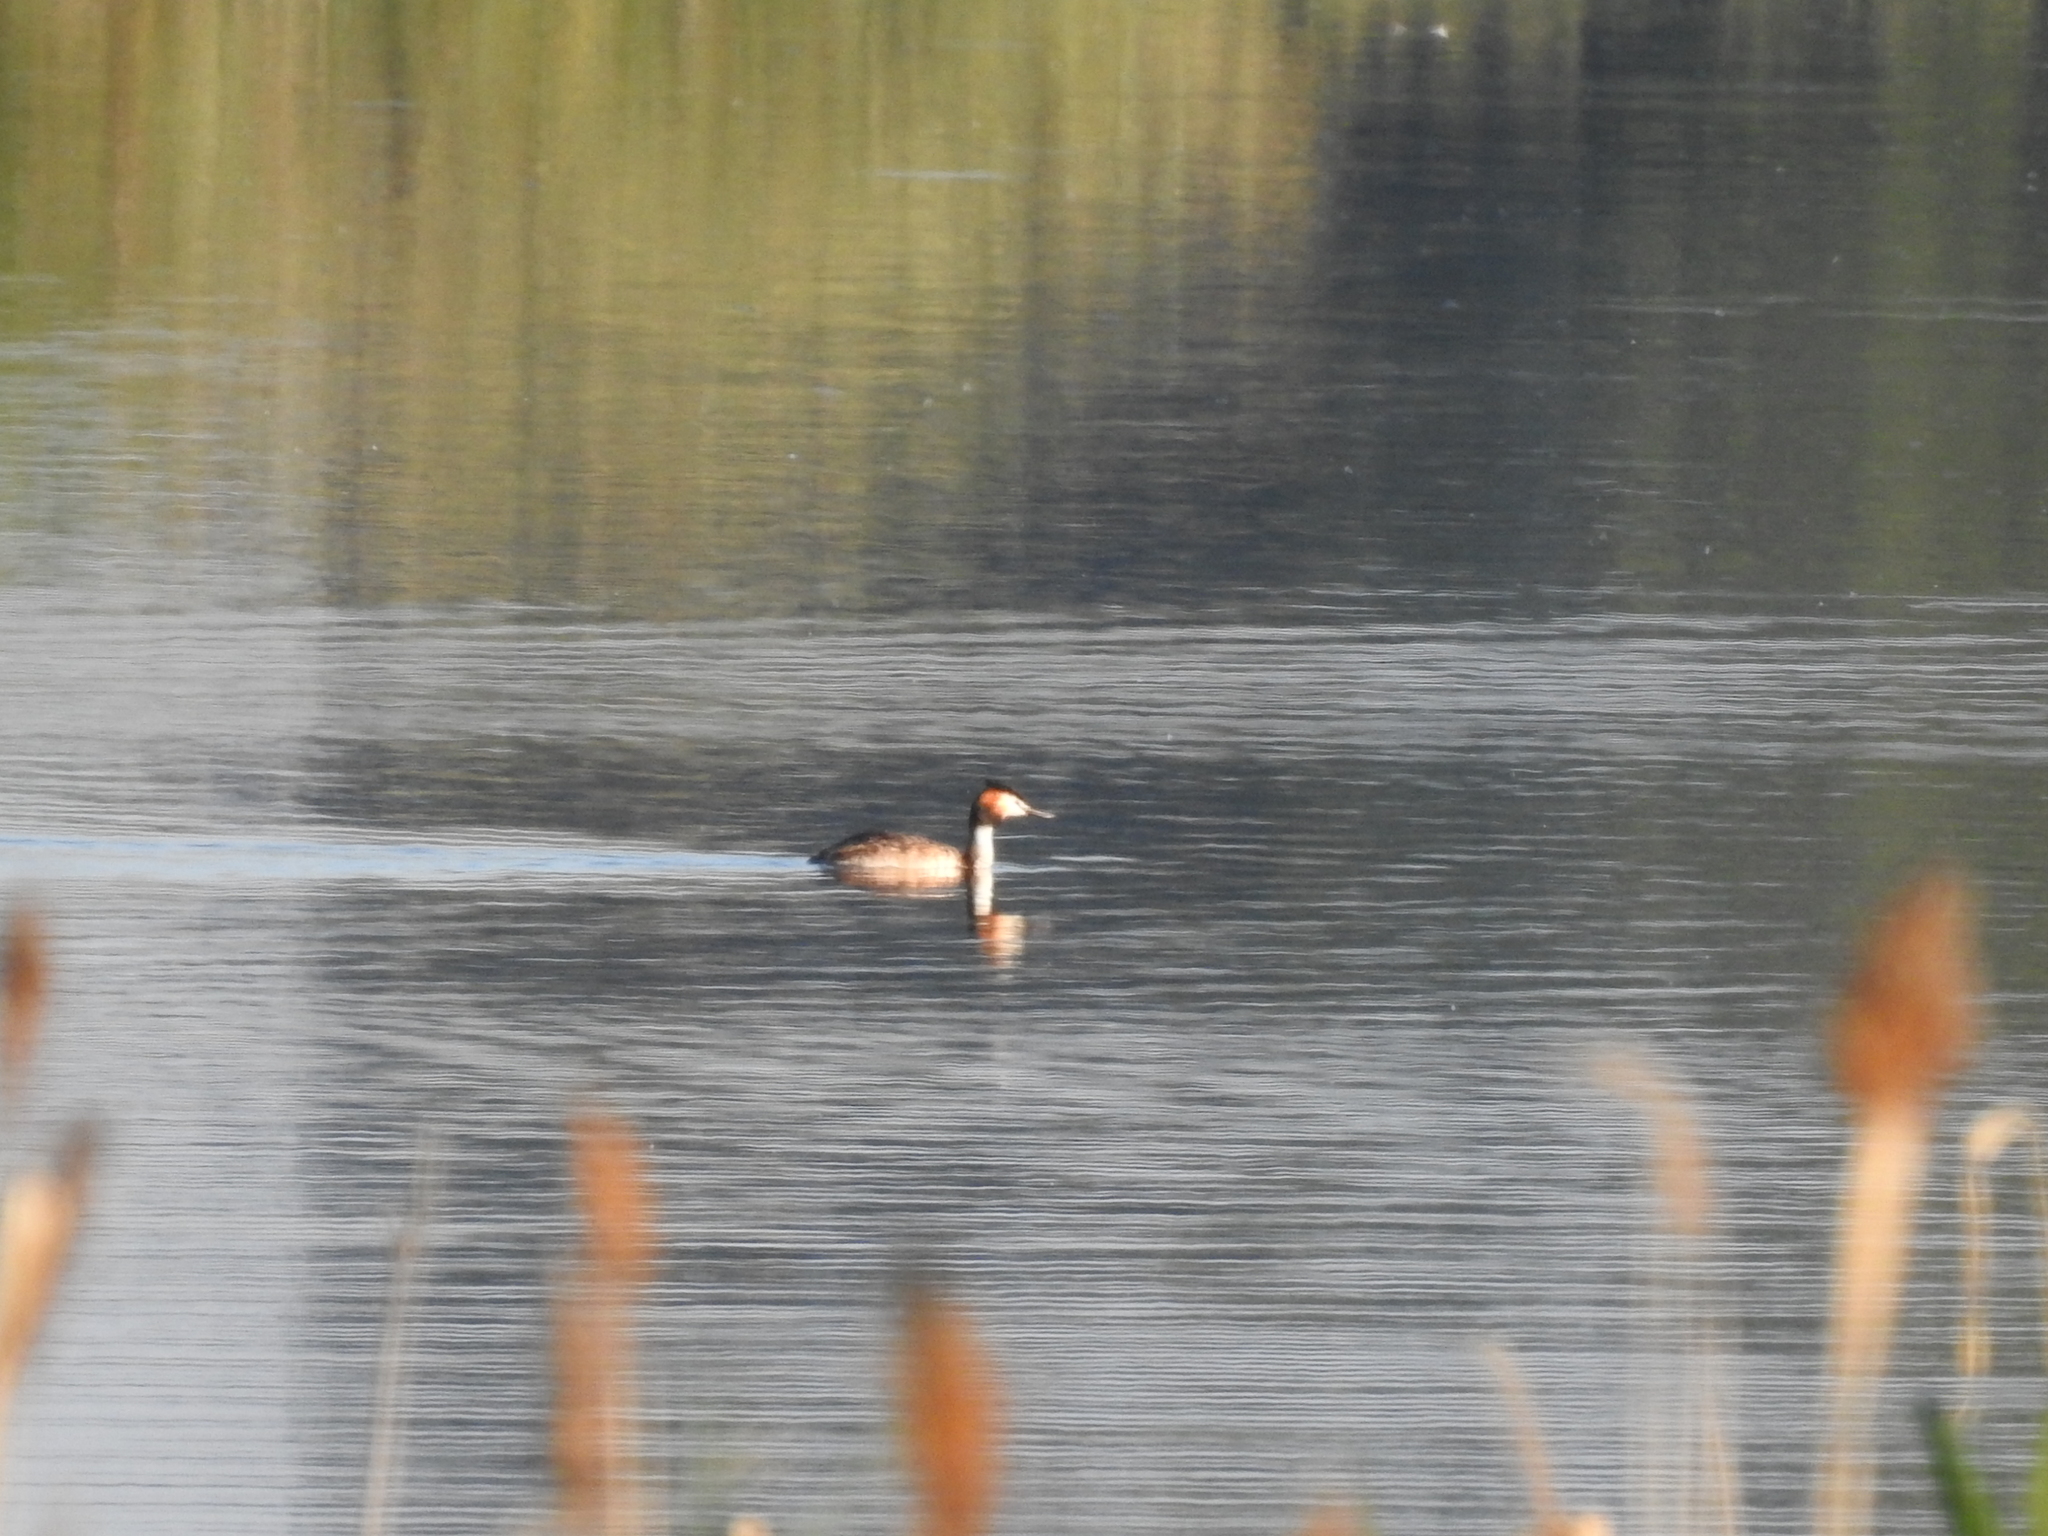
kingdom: Animalia
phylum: Chordata
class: Aves
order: Podicipediformes
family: Podicipedidae
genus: Podiceps
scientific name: Podiceps cristatus
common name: Great crested grebe
